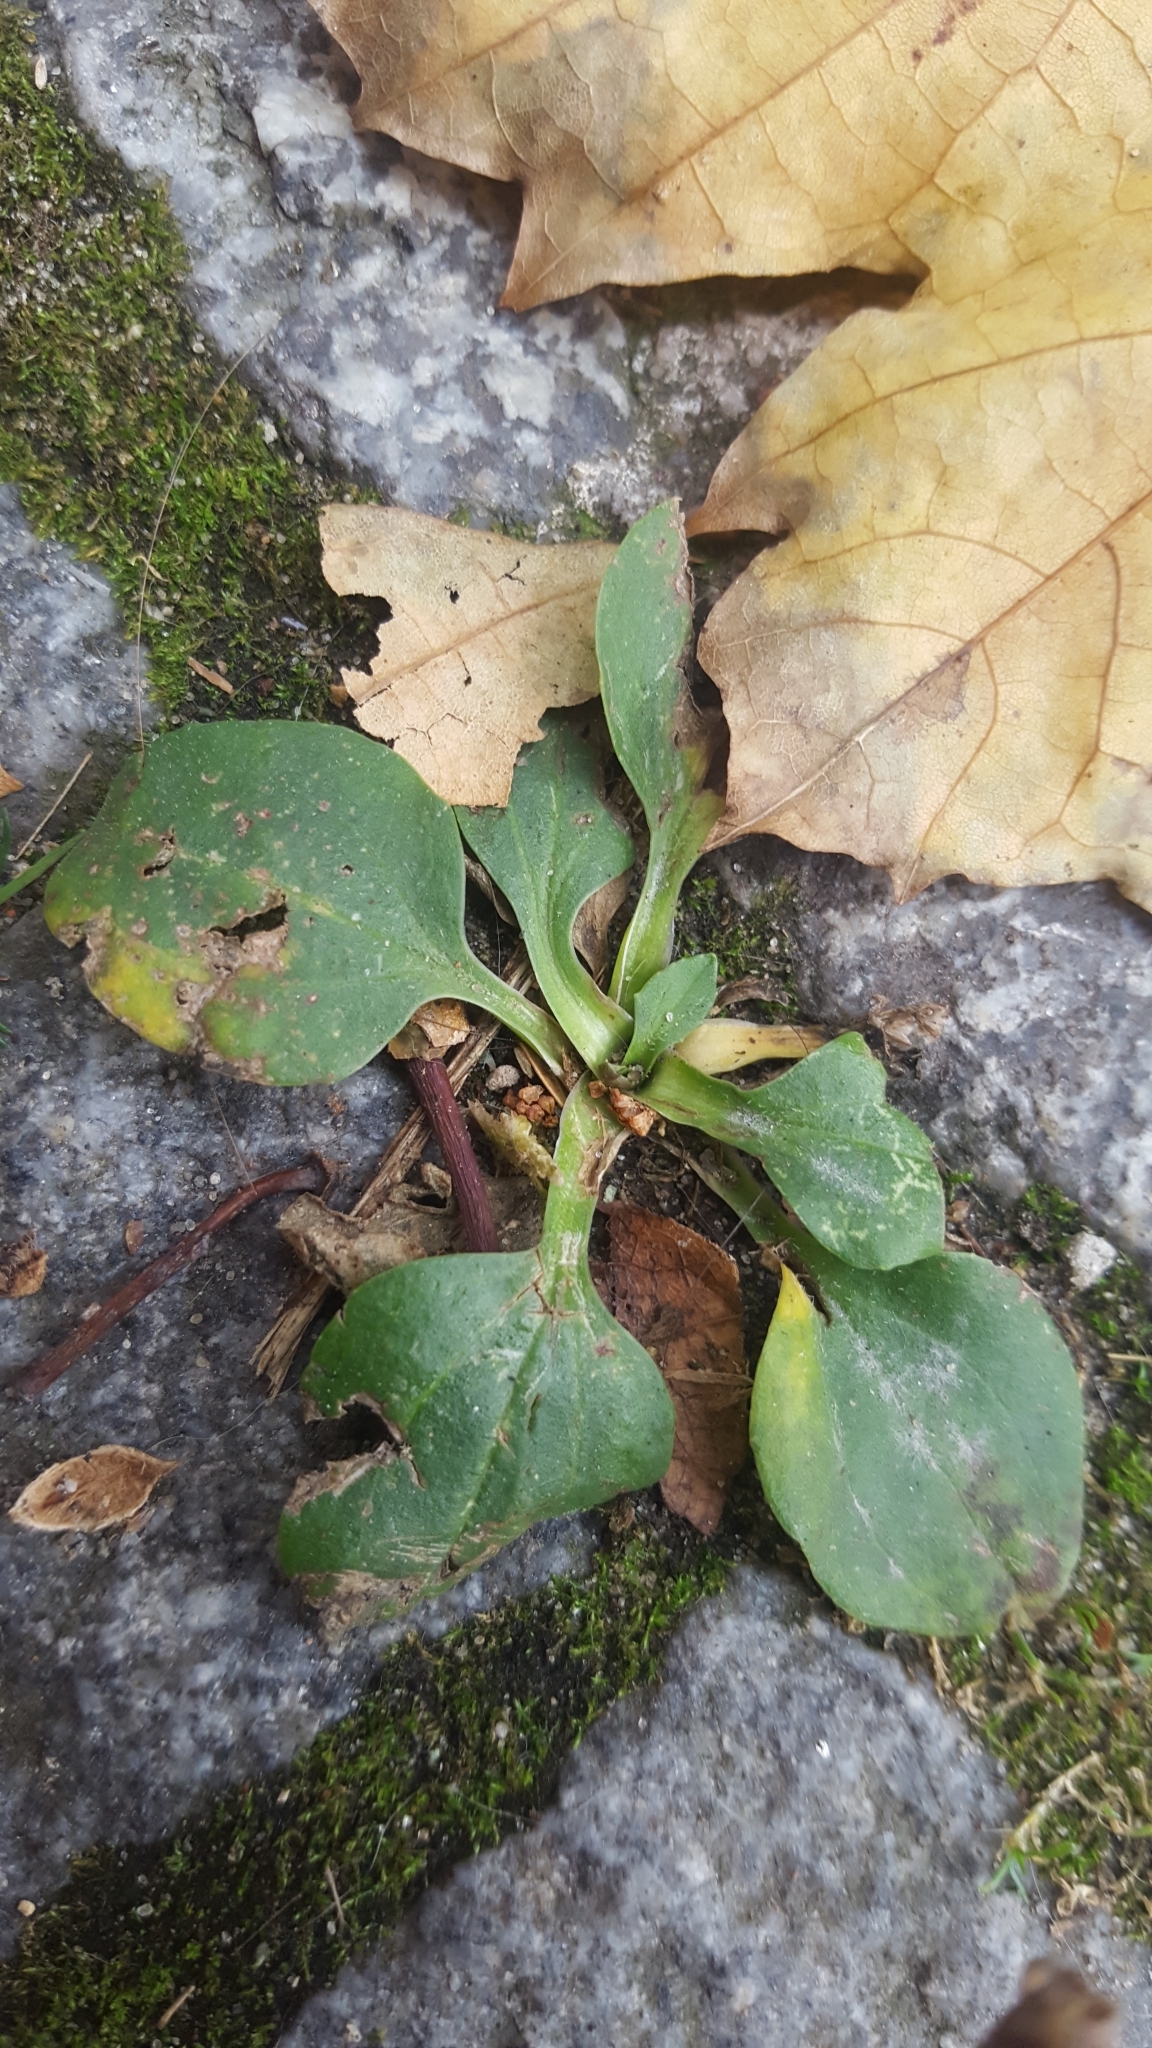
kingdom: Plantae
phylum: Tracheophyta
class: Magnoliopsida
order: Lamiales
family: Plantaginaceae
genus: Plantago
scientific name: Plantago major
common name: Common plantain
